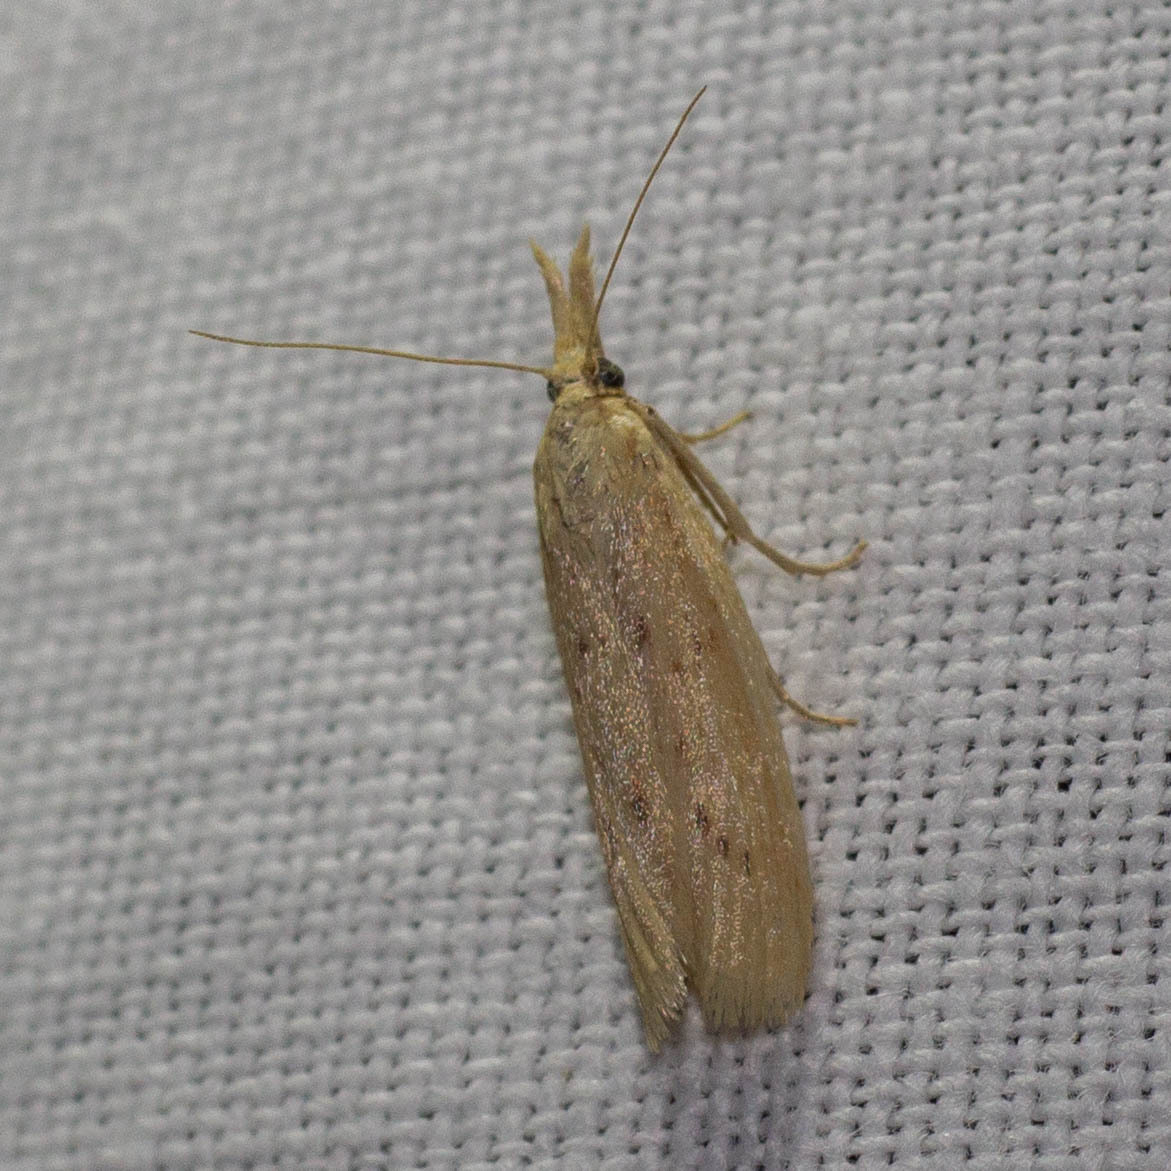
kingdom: Animalia
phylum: Arthropoda
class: Insecta
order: Lepidoptera
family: Pyralidae
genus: Ematheudes
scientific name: Ematheudes punctellus
